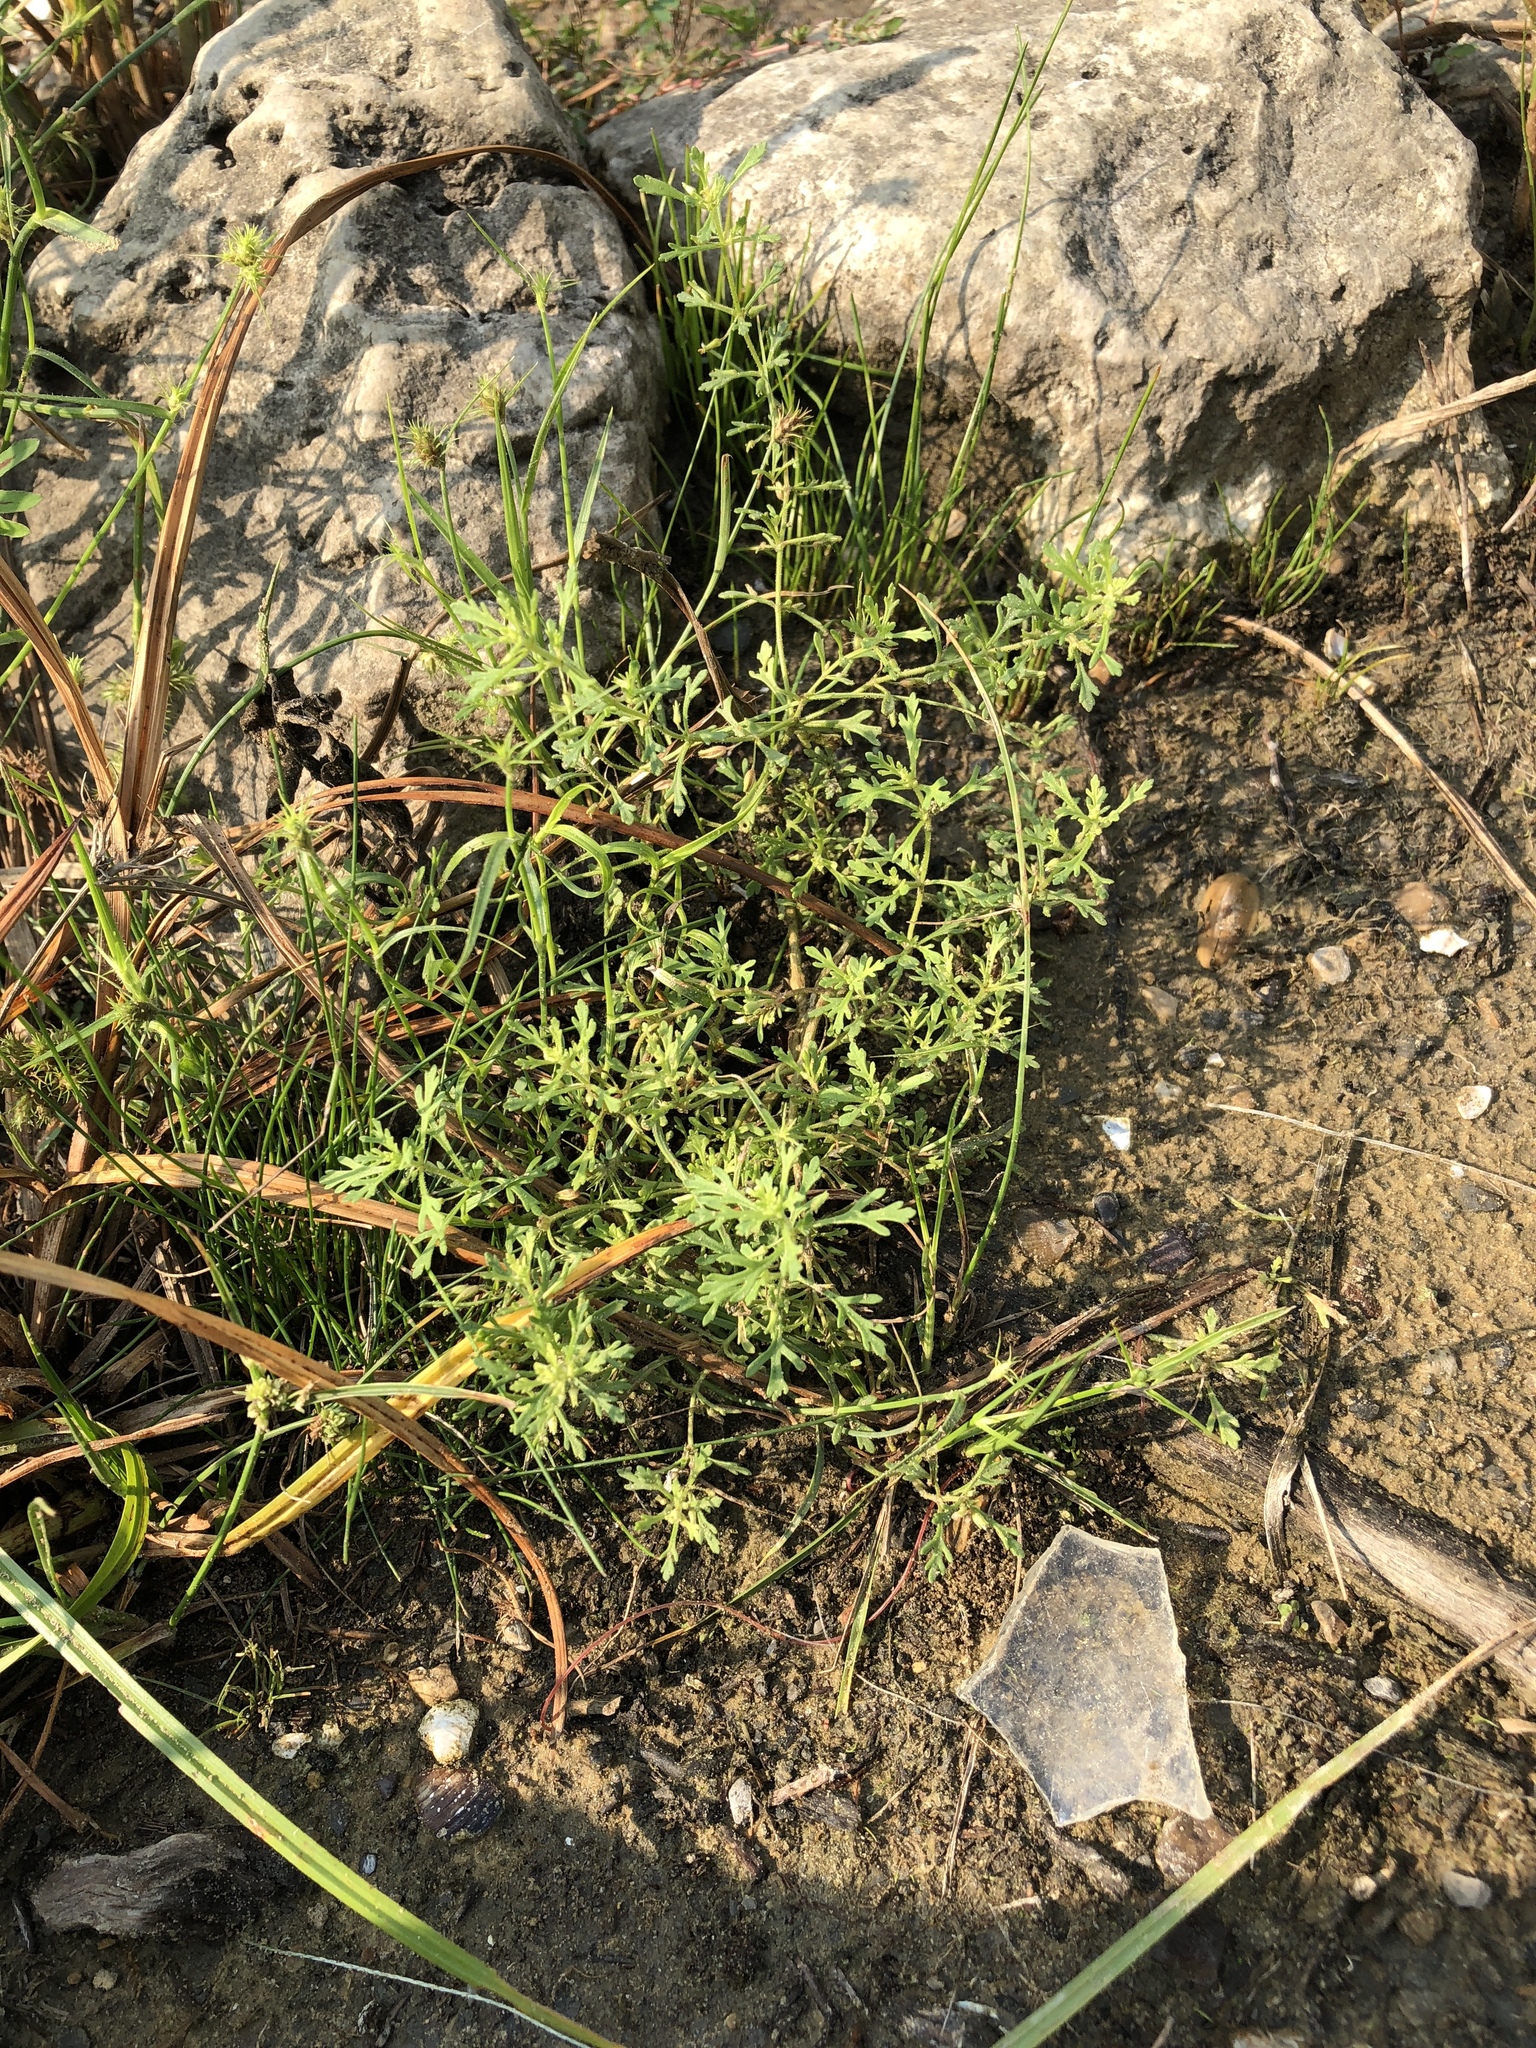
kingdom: Plantae
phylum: Tracheophyta
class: Magnoliopsida
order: Lamiales
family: Plantaginaceae
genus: Leucospora
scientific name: Leucospora multifida
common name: Narrow-leaf paleseed
